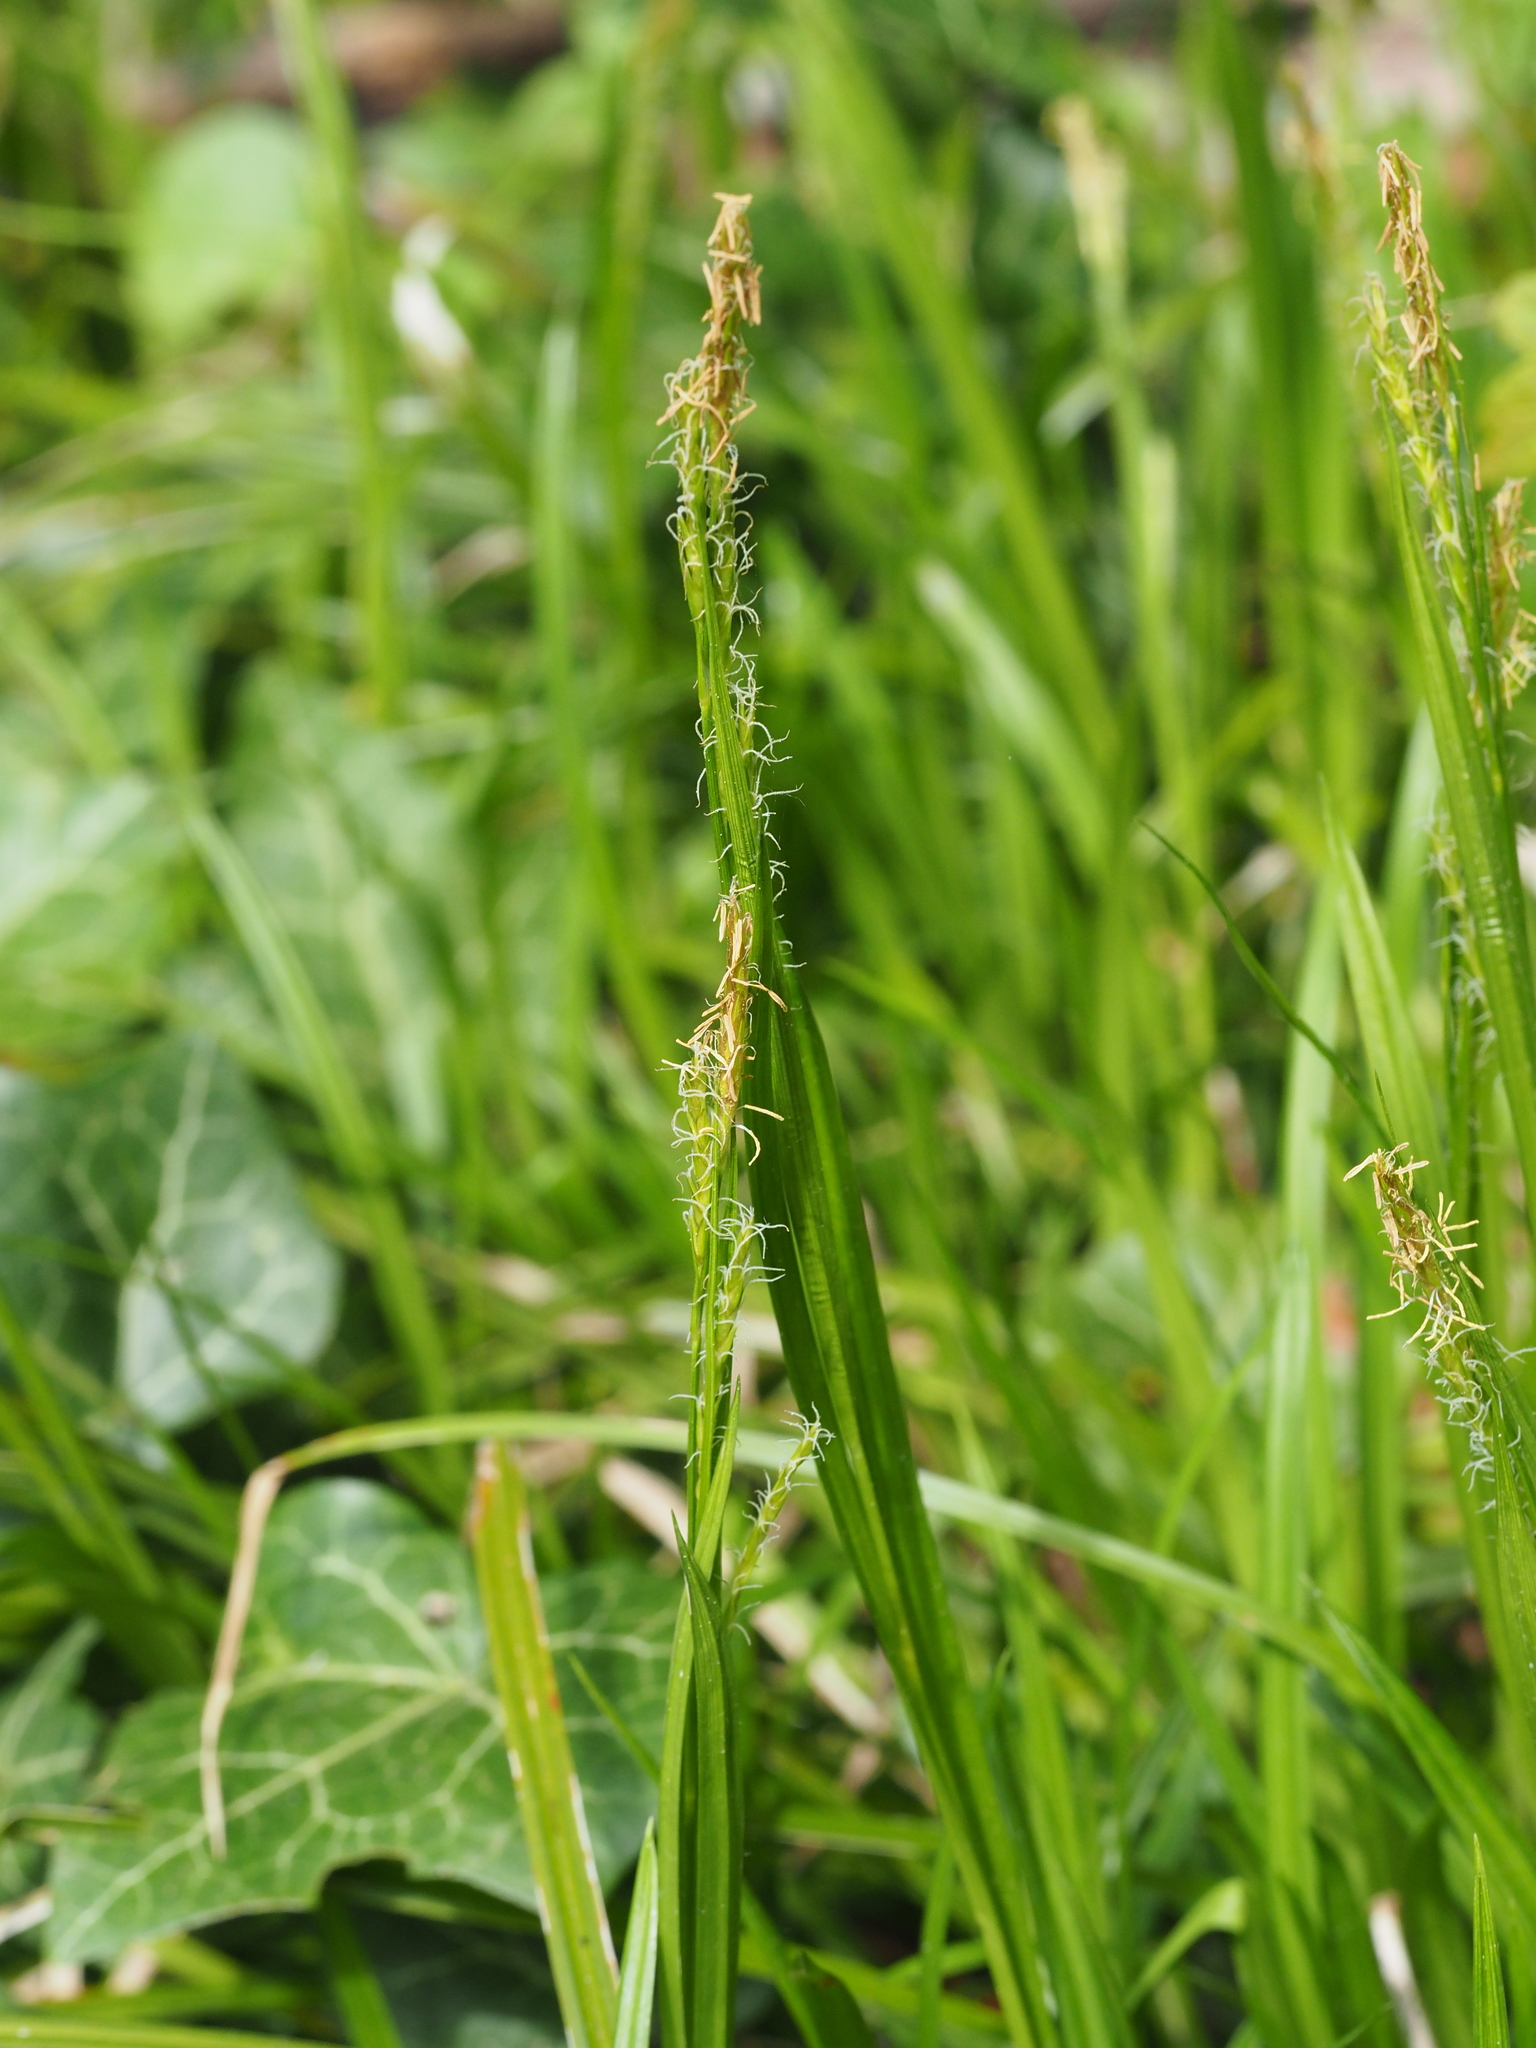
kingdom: Plantae
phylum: Tracheophyta
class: Liliopsida
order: Poales
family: Cyperaceae
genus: Carex
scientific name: Carex sylvatica
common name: Wood-sedge
